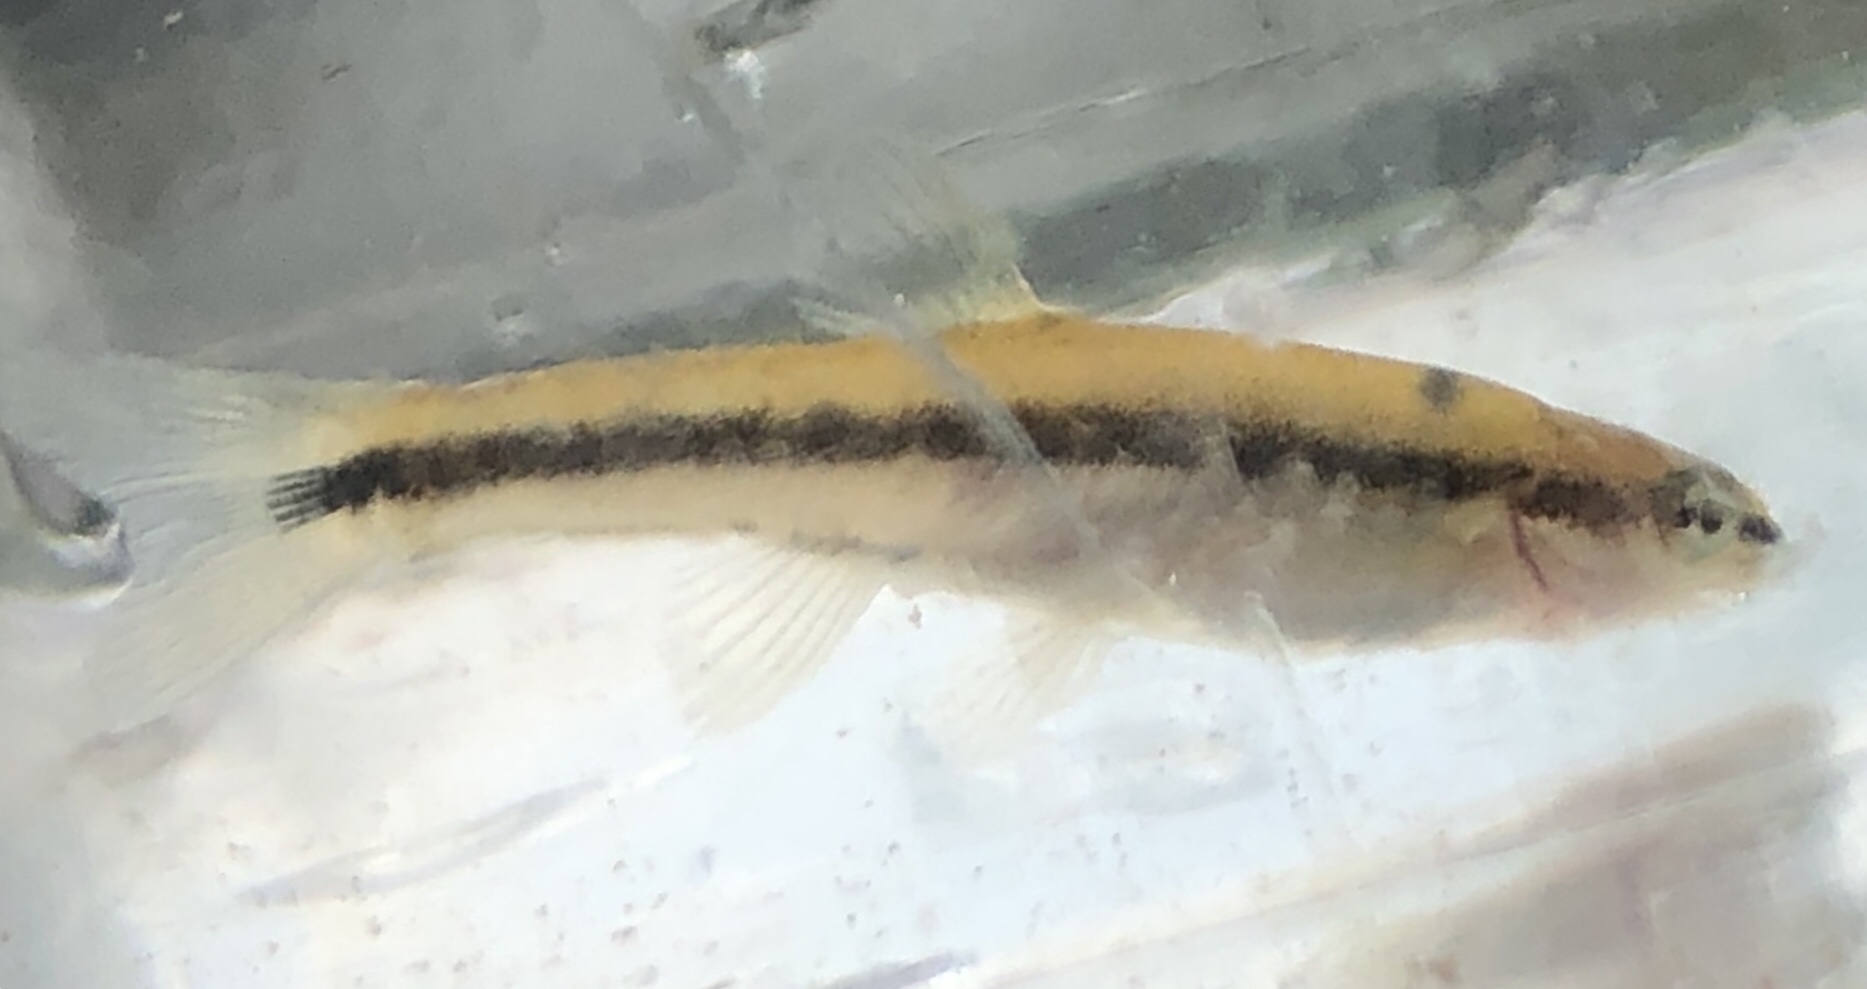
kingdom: Animalia
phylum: Chordata
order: Cypriniformes
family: Cyprinidae
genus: Rhinichthys
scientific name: Rhinichthys obtusus
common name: Western blacknose dace
